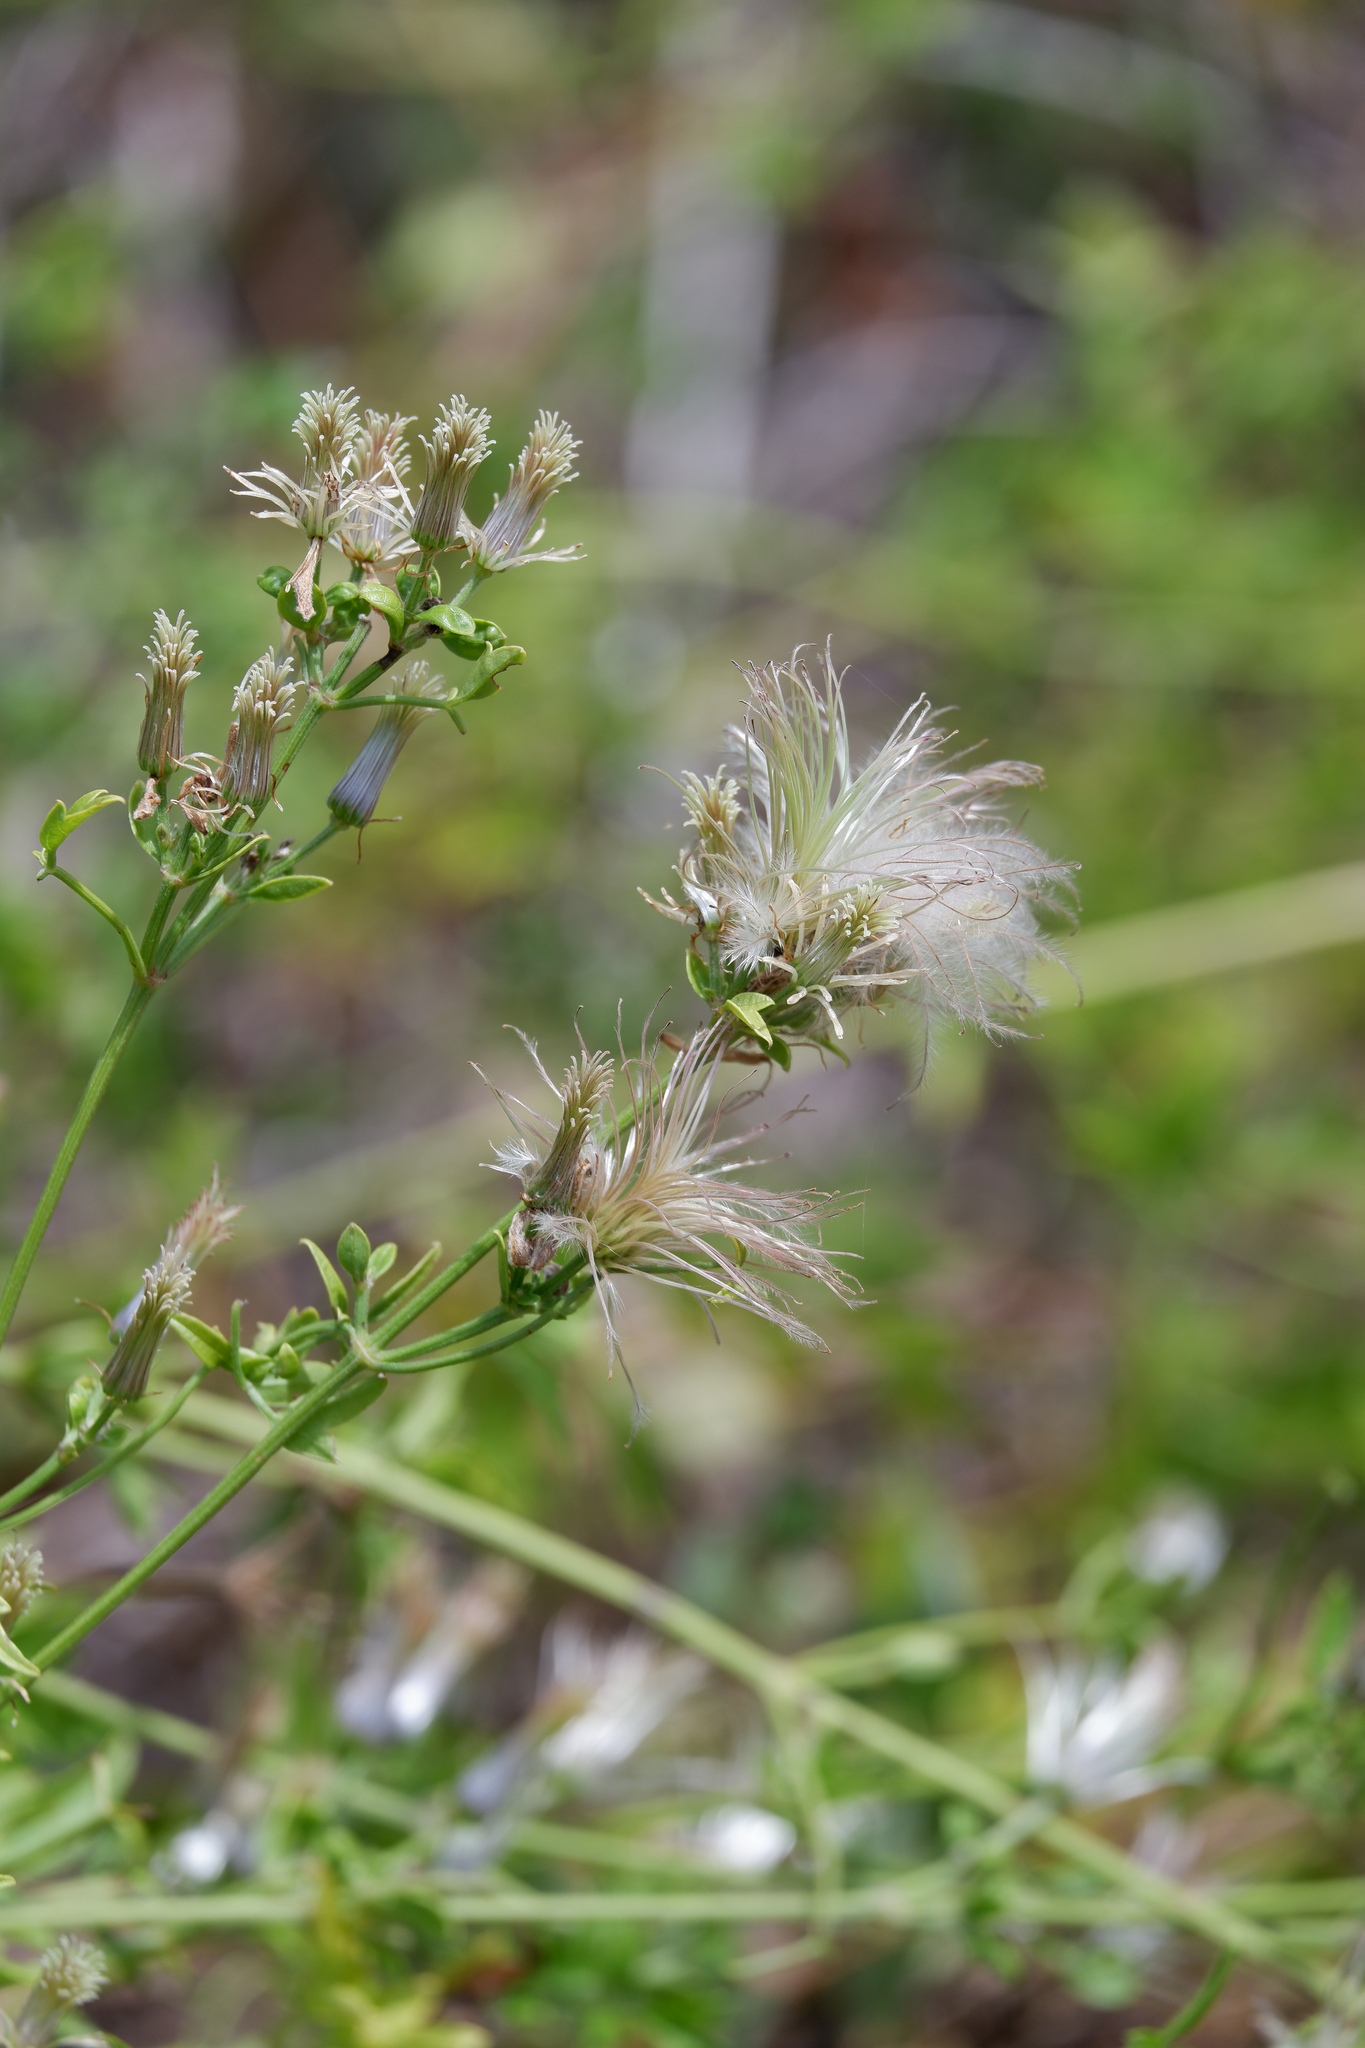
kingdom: Plantae
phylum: Tracheophyta
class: Magnoliopsida
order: Ranunculales
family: Ranunculaceae
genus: Clematis
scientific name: Clematis drummondii
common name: Texas virgin's bower
